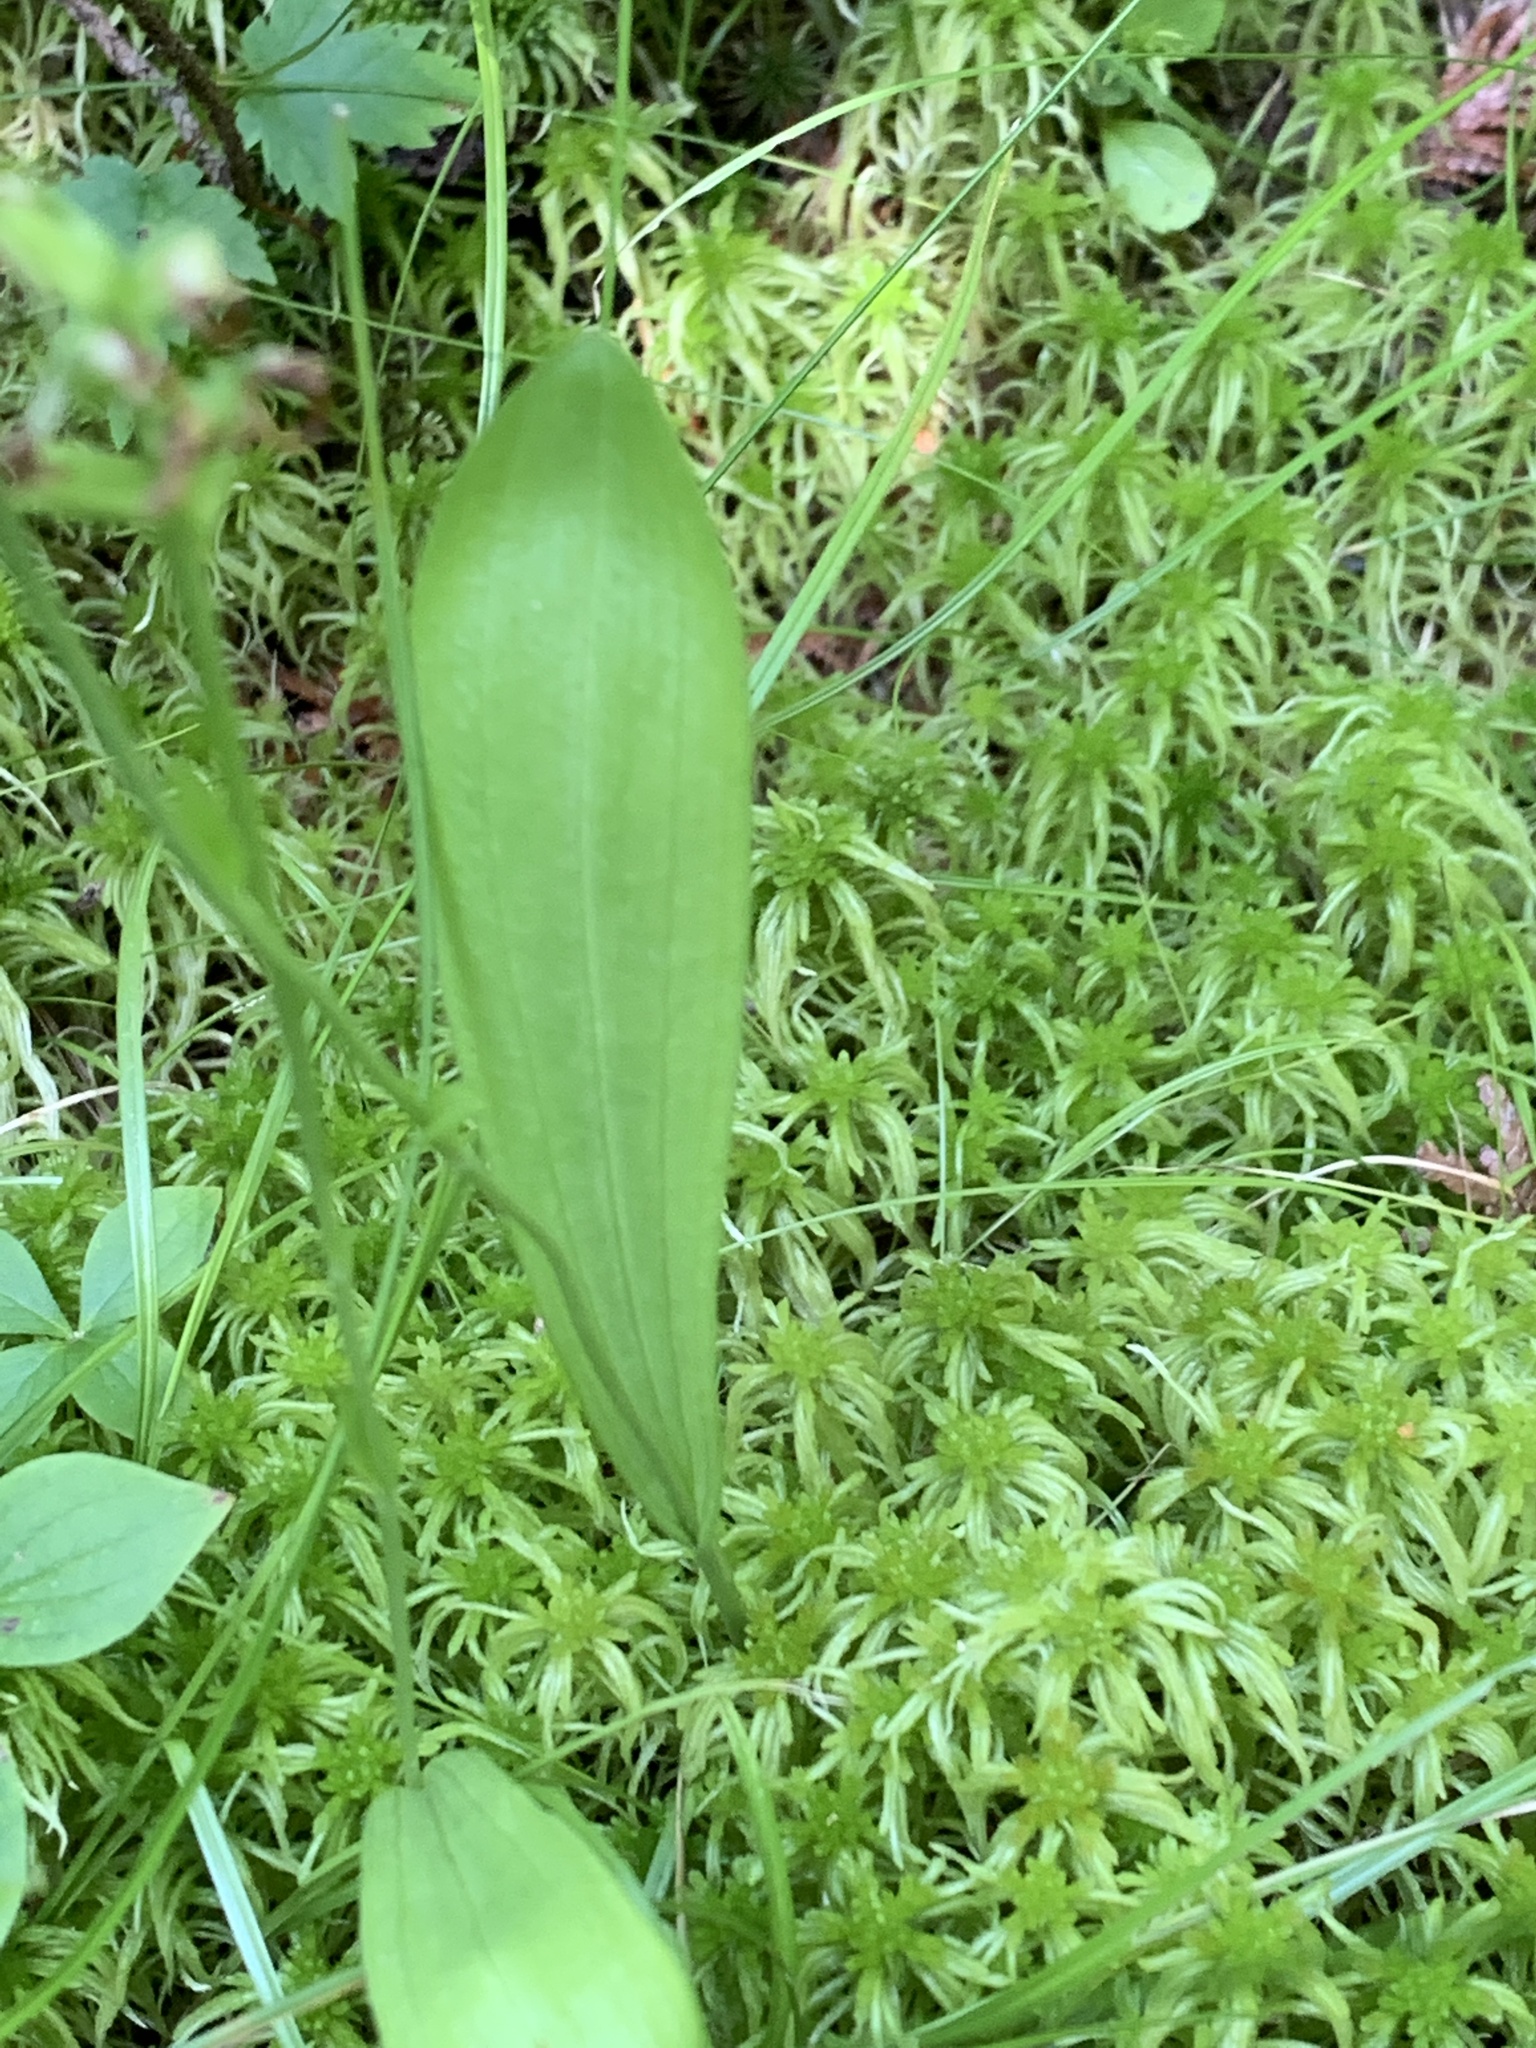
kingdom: Plantae
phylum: Tracheophyta
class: Liliopsida
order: Asparagales
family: Orchidaceae
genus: Platanthera
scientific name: Platanthera clavellata
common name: Club-spur orchid
